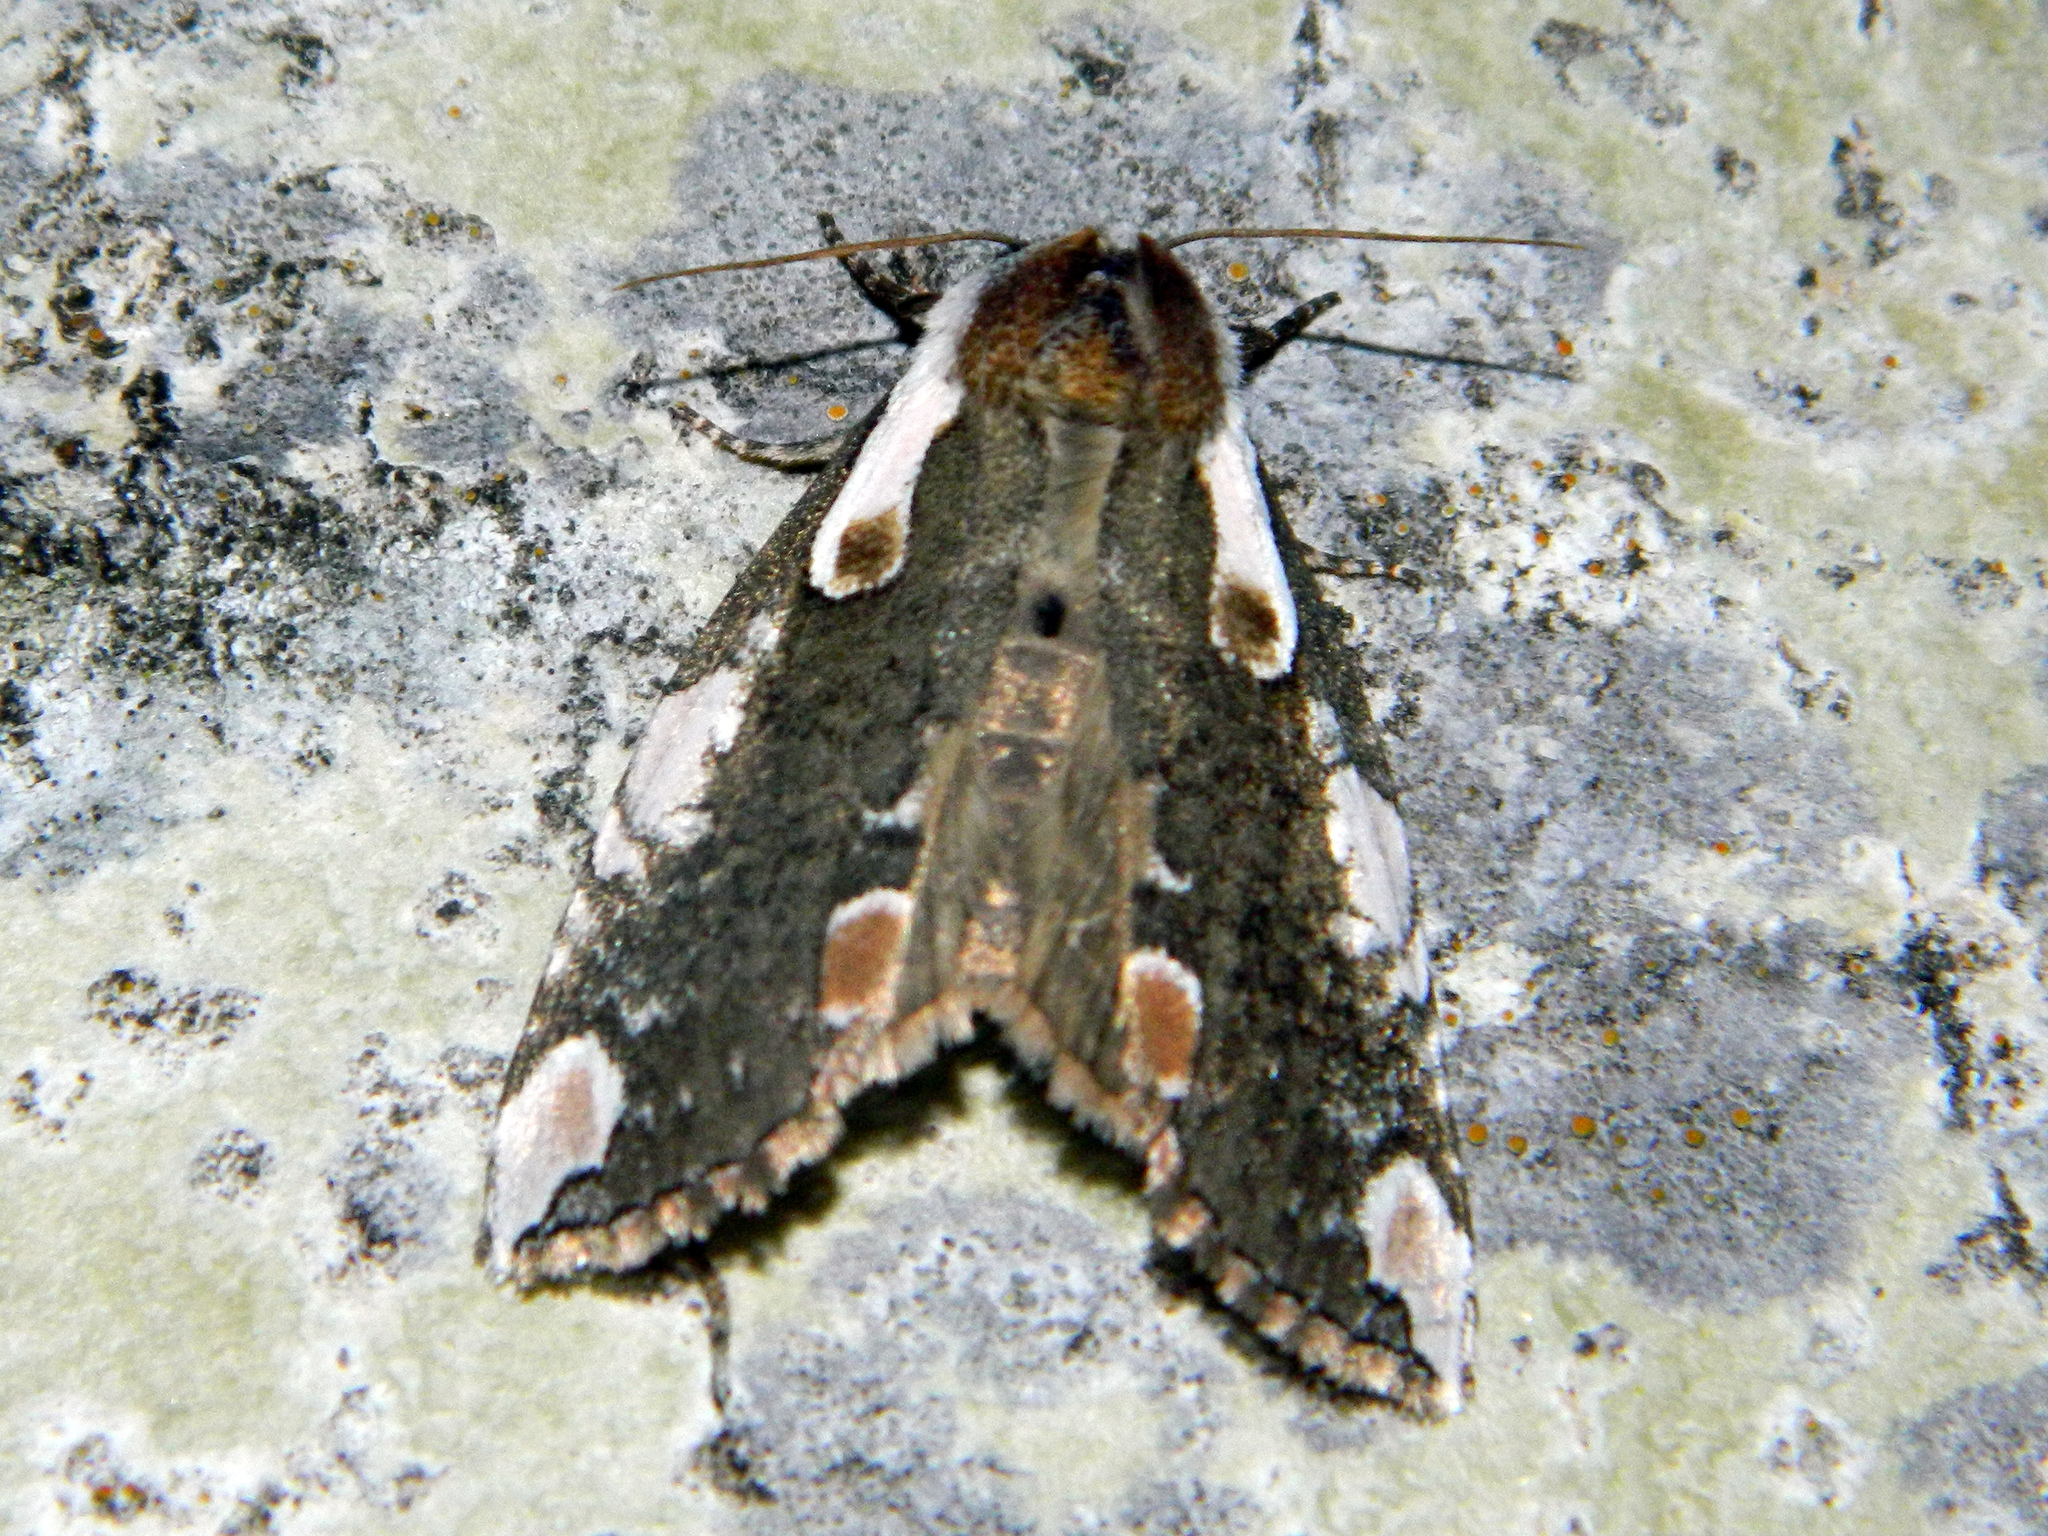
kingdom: Animalia
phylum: Arthropoda
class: Insecta
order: Lepidoptera
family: Drepanidae
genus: Euthyatira
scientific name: Euthyatira pudens
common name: Dogwood thyatirid moth
